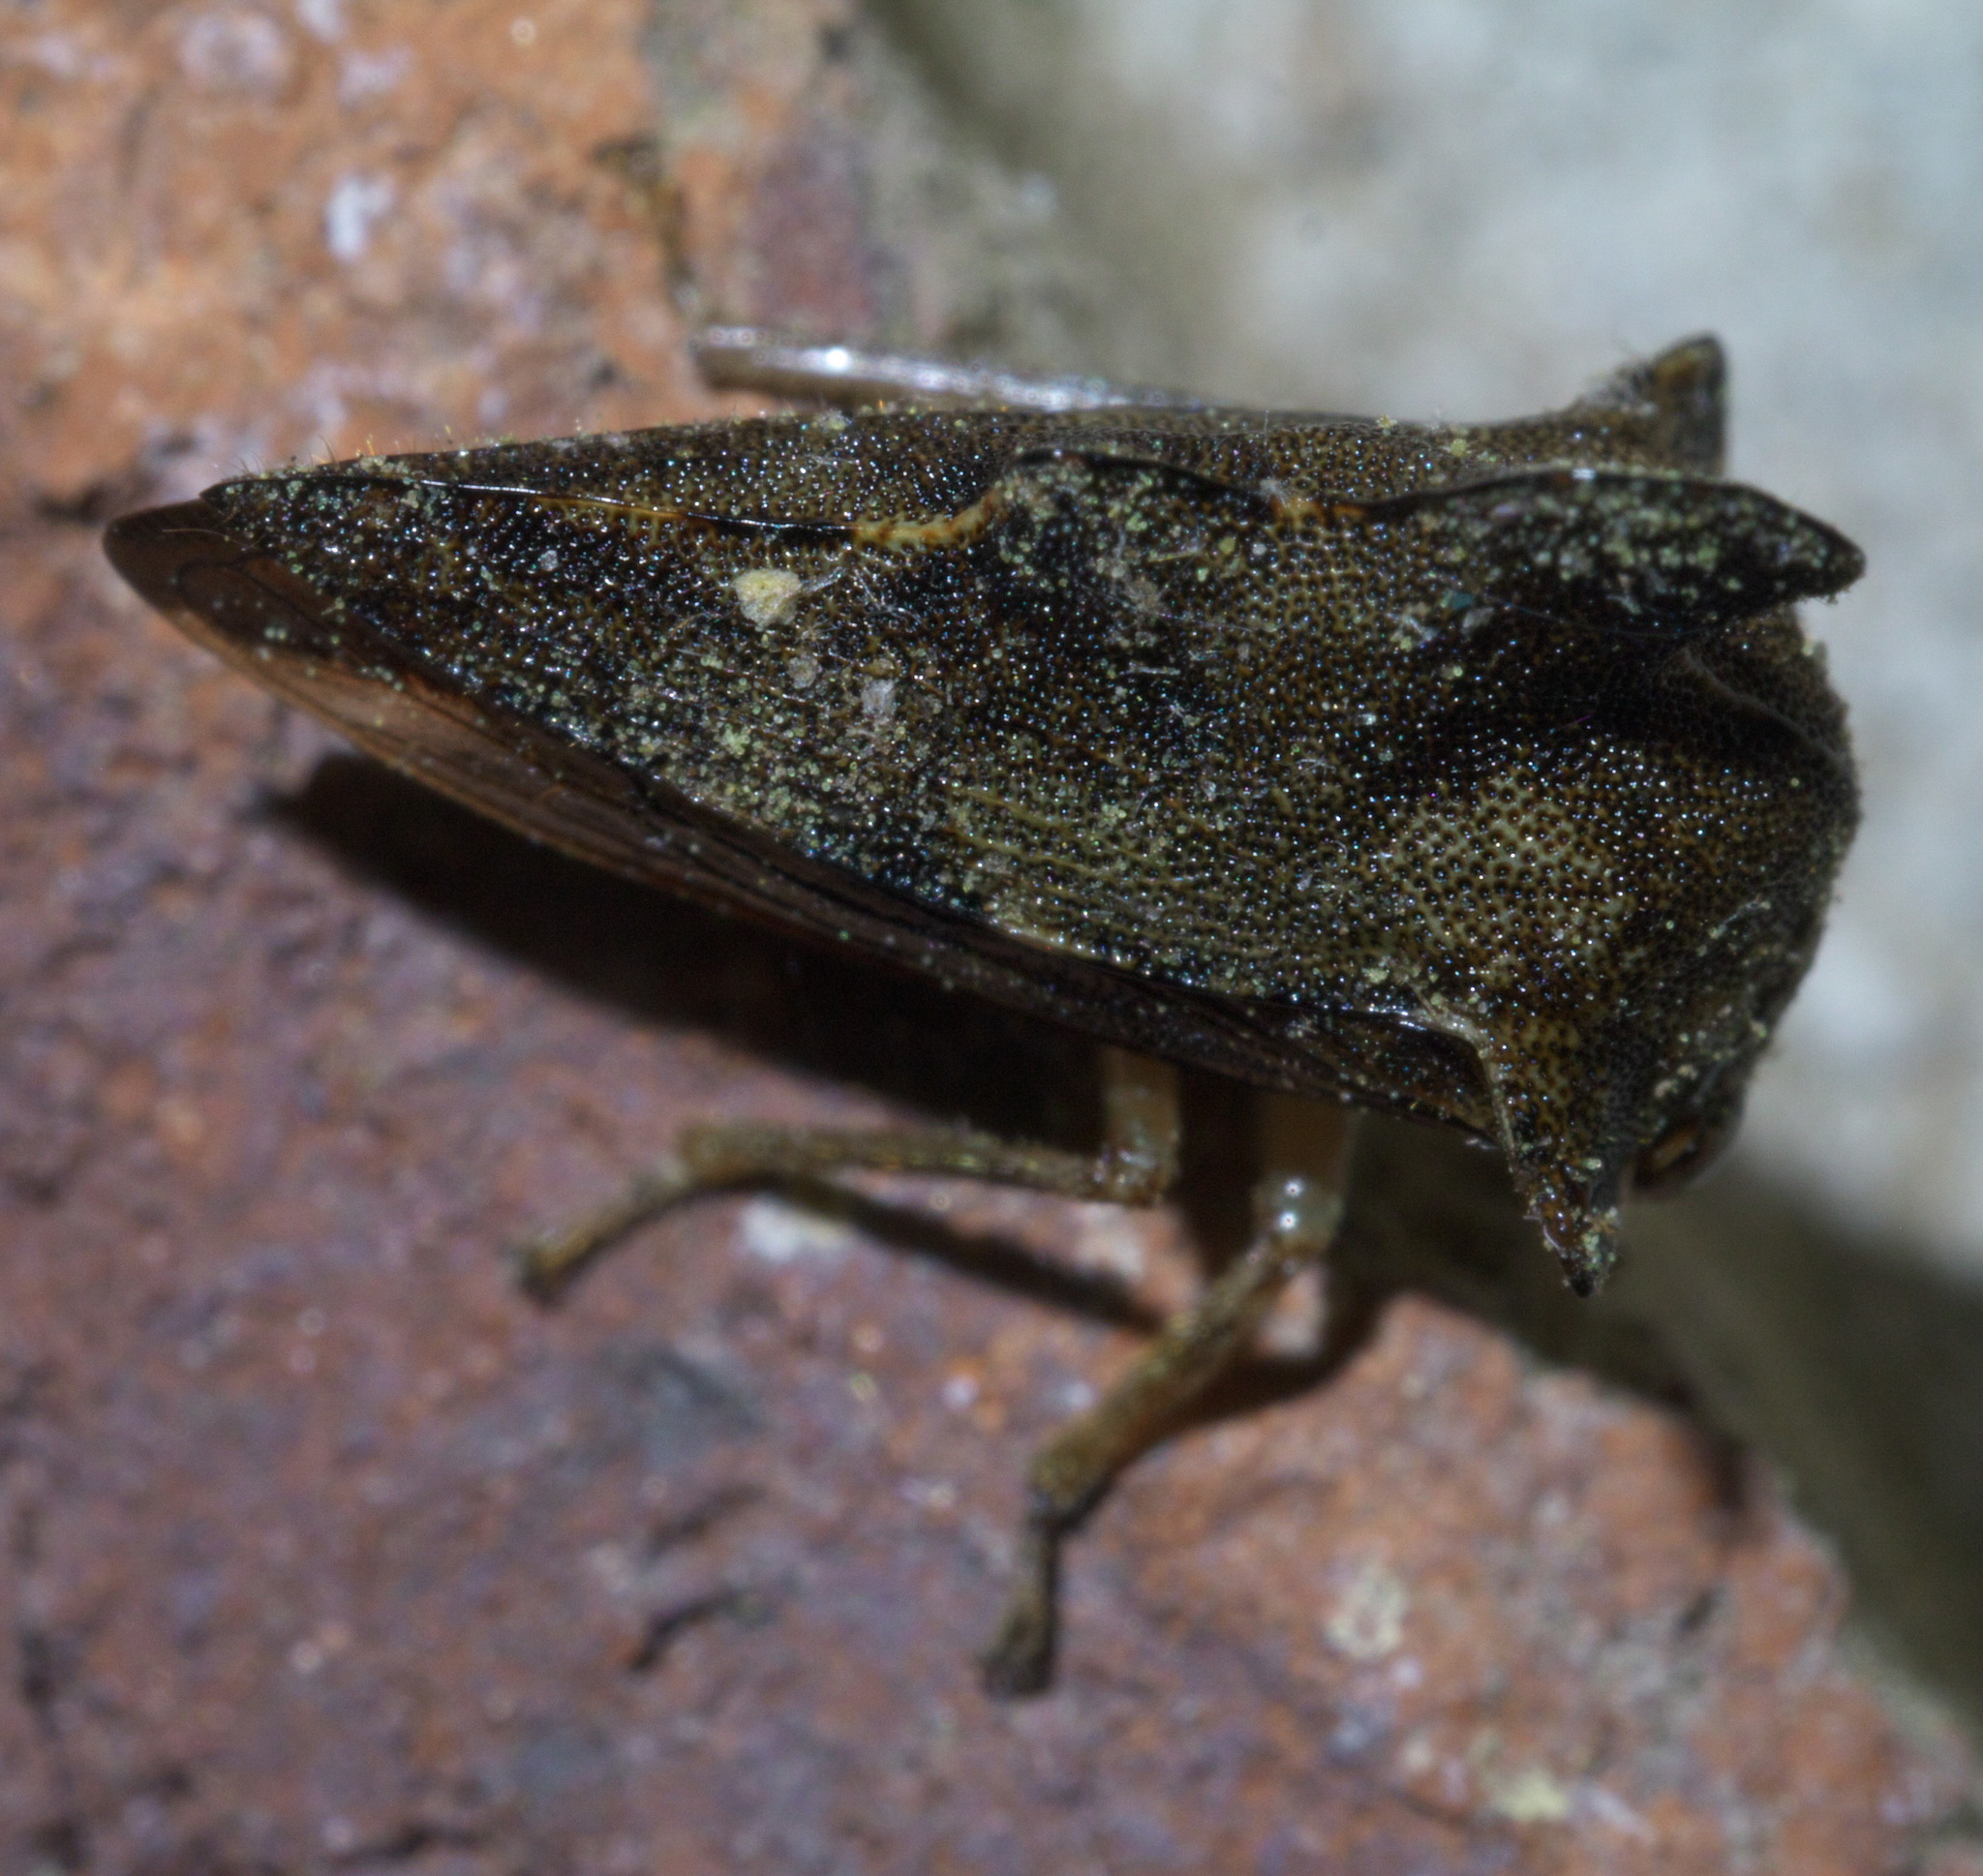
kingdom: Animalia
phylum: Arthropoda
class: Insecta
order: Hemiptera
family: Membracidae
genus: Heliria
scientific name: Heliria cristata
